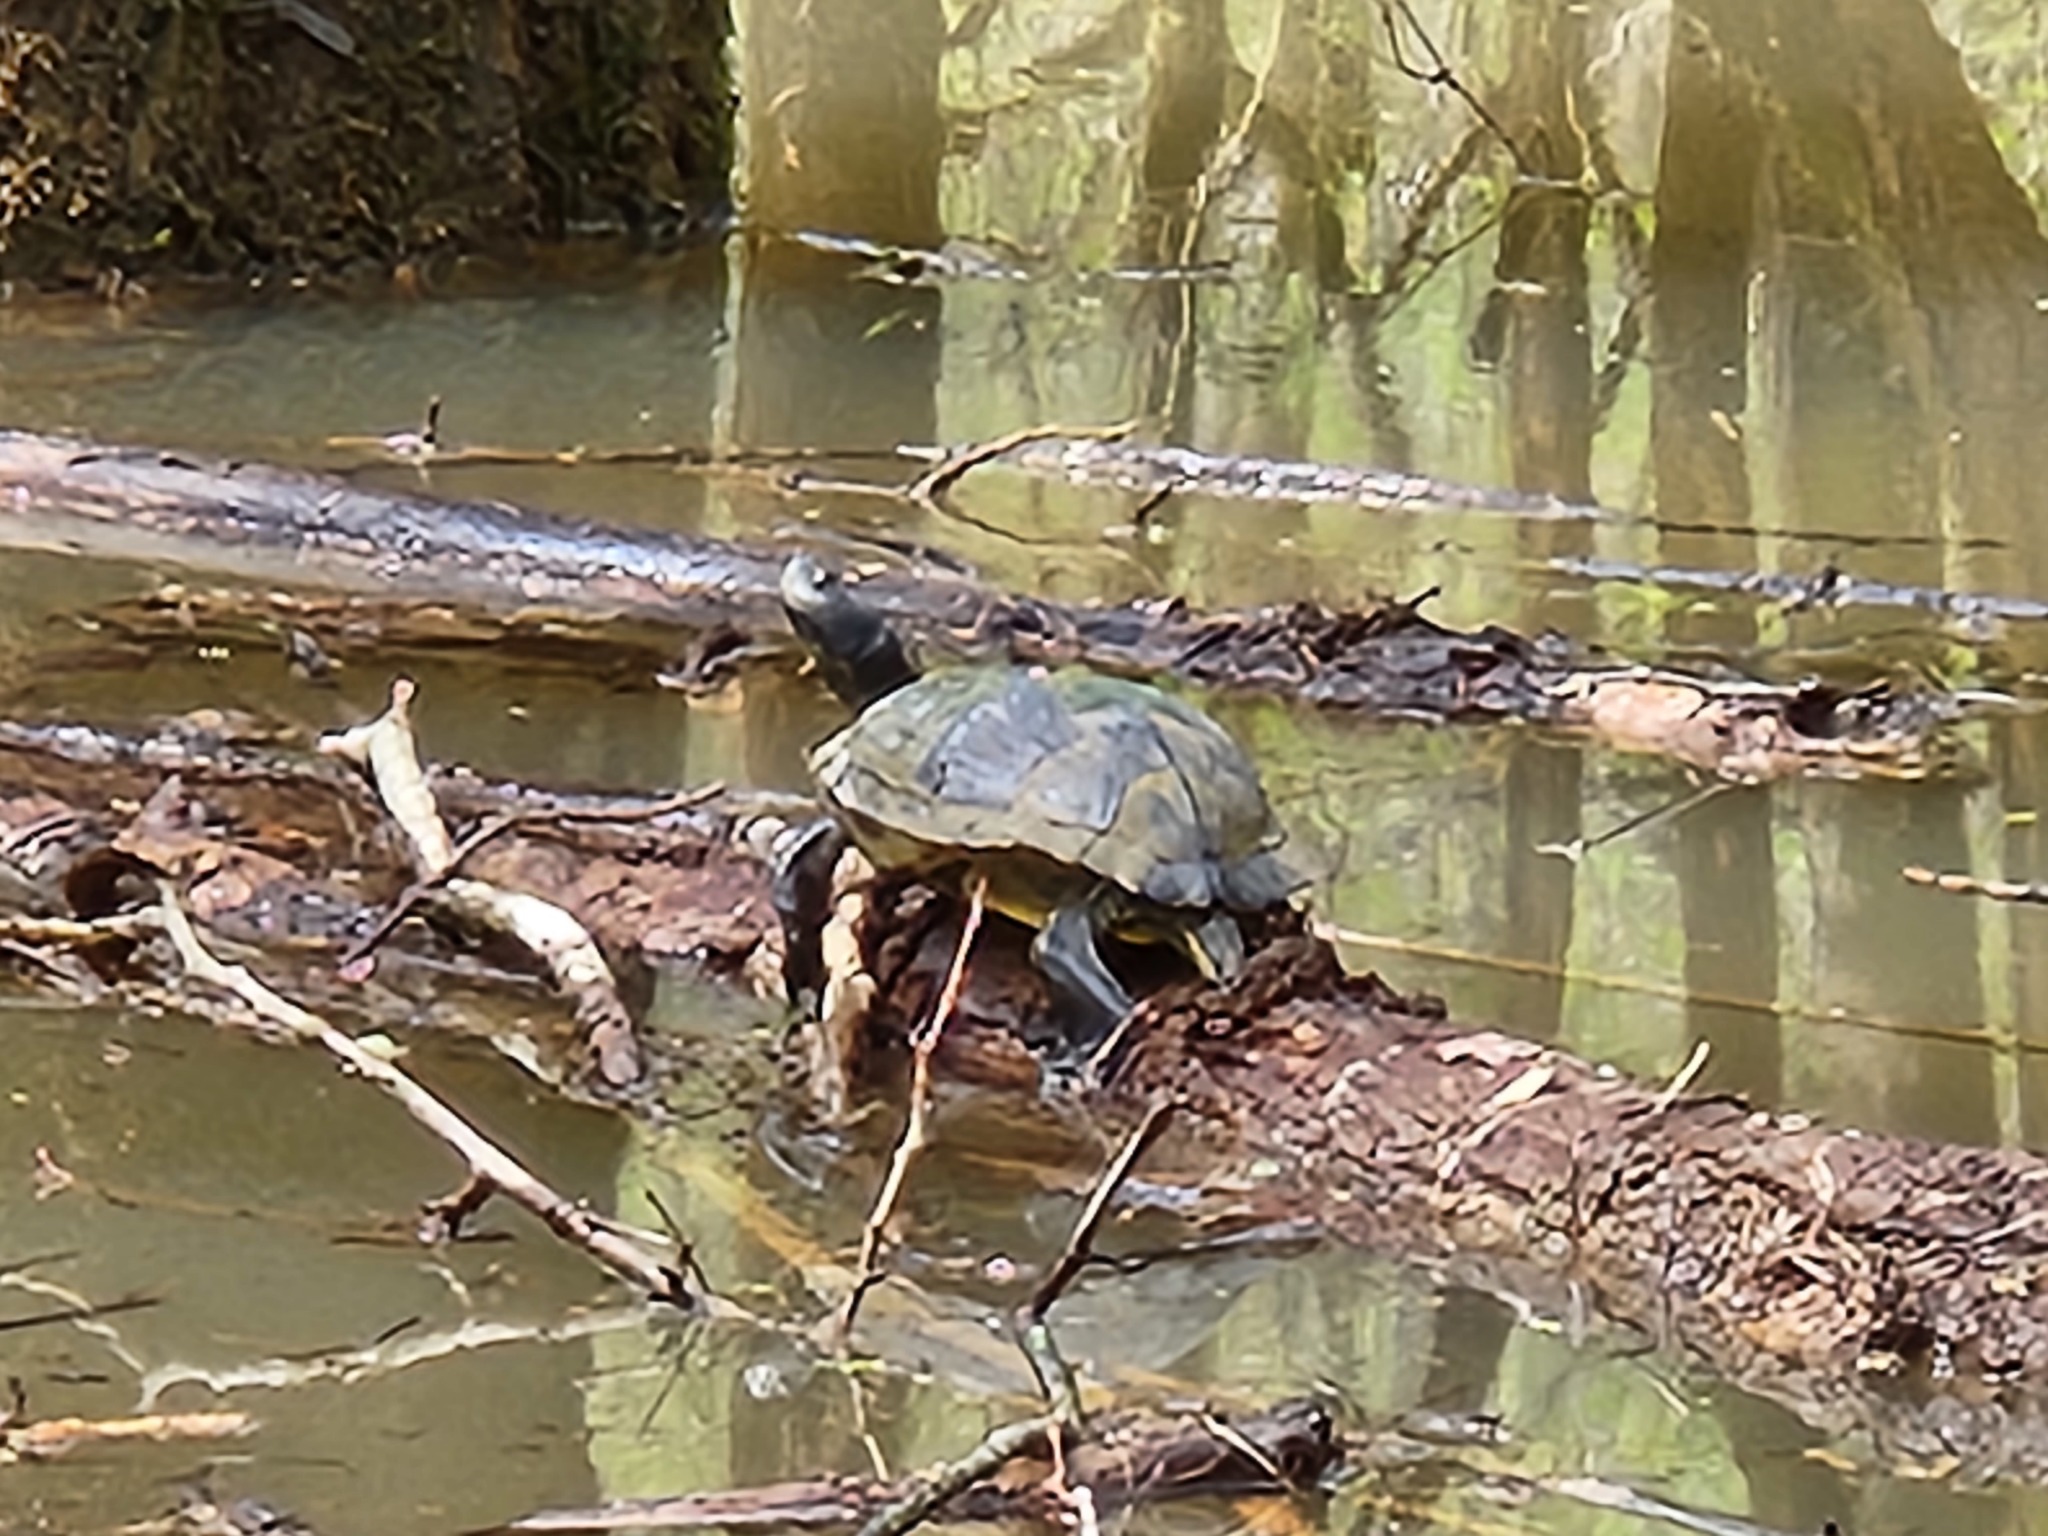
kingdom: Animalia
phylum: Chordata
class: Testudines
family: Emydidae
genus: Trachemys
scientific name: Trachemys scripta
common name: Slider
